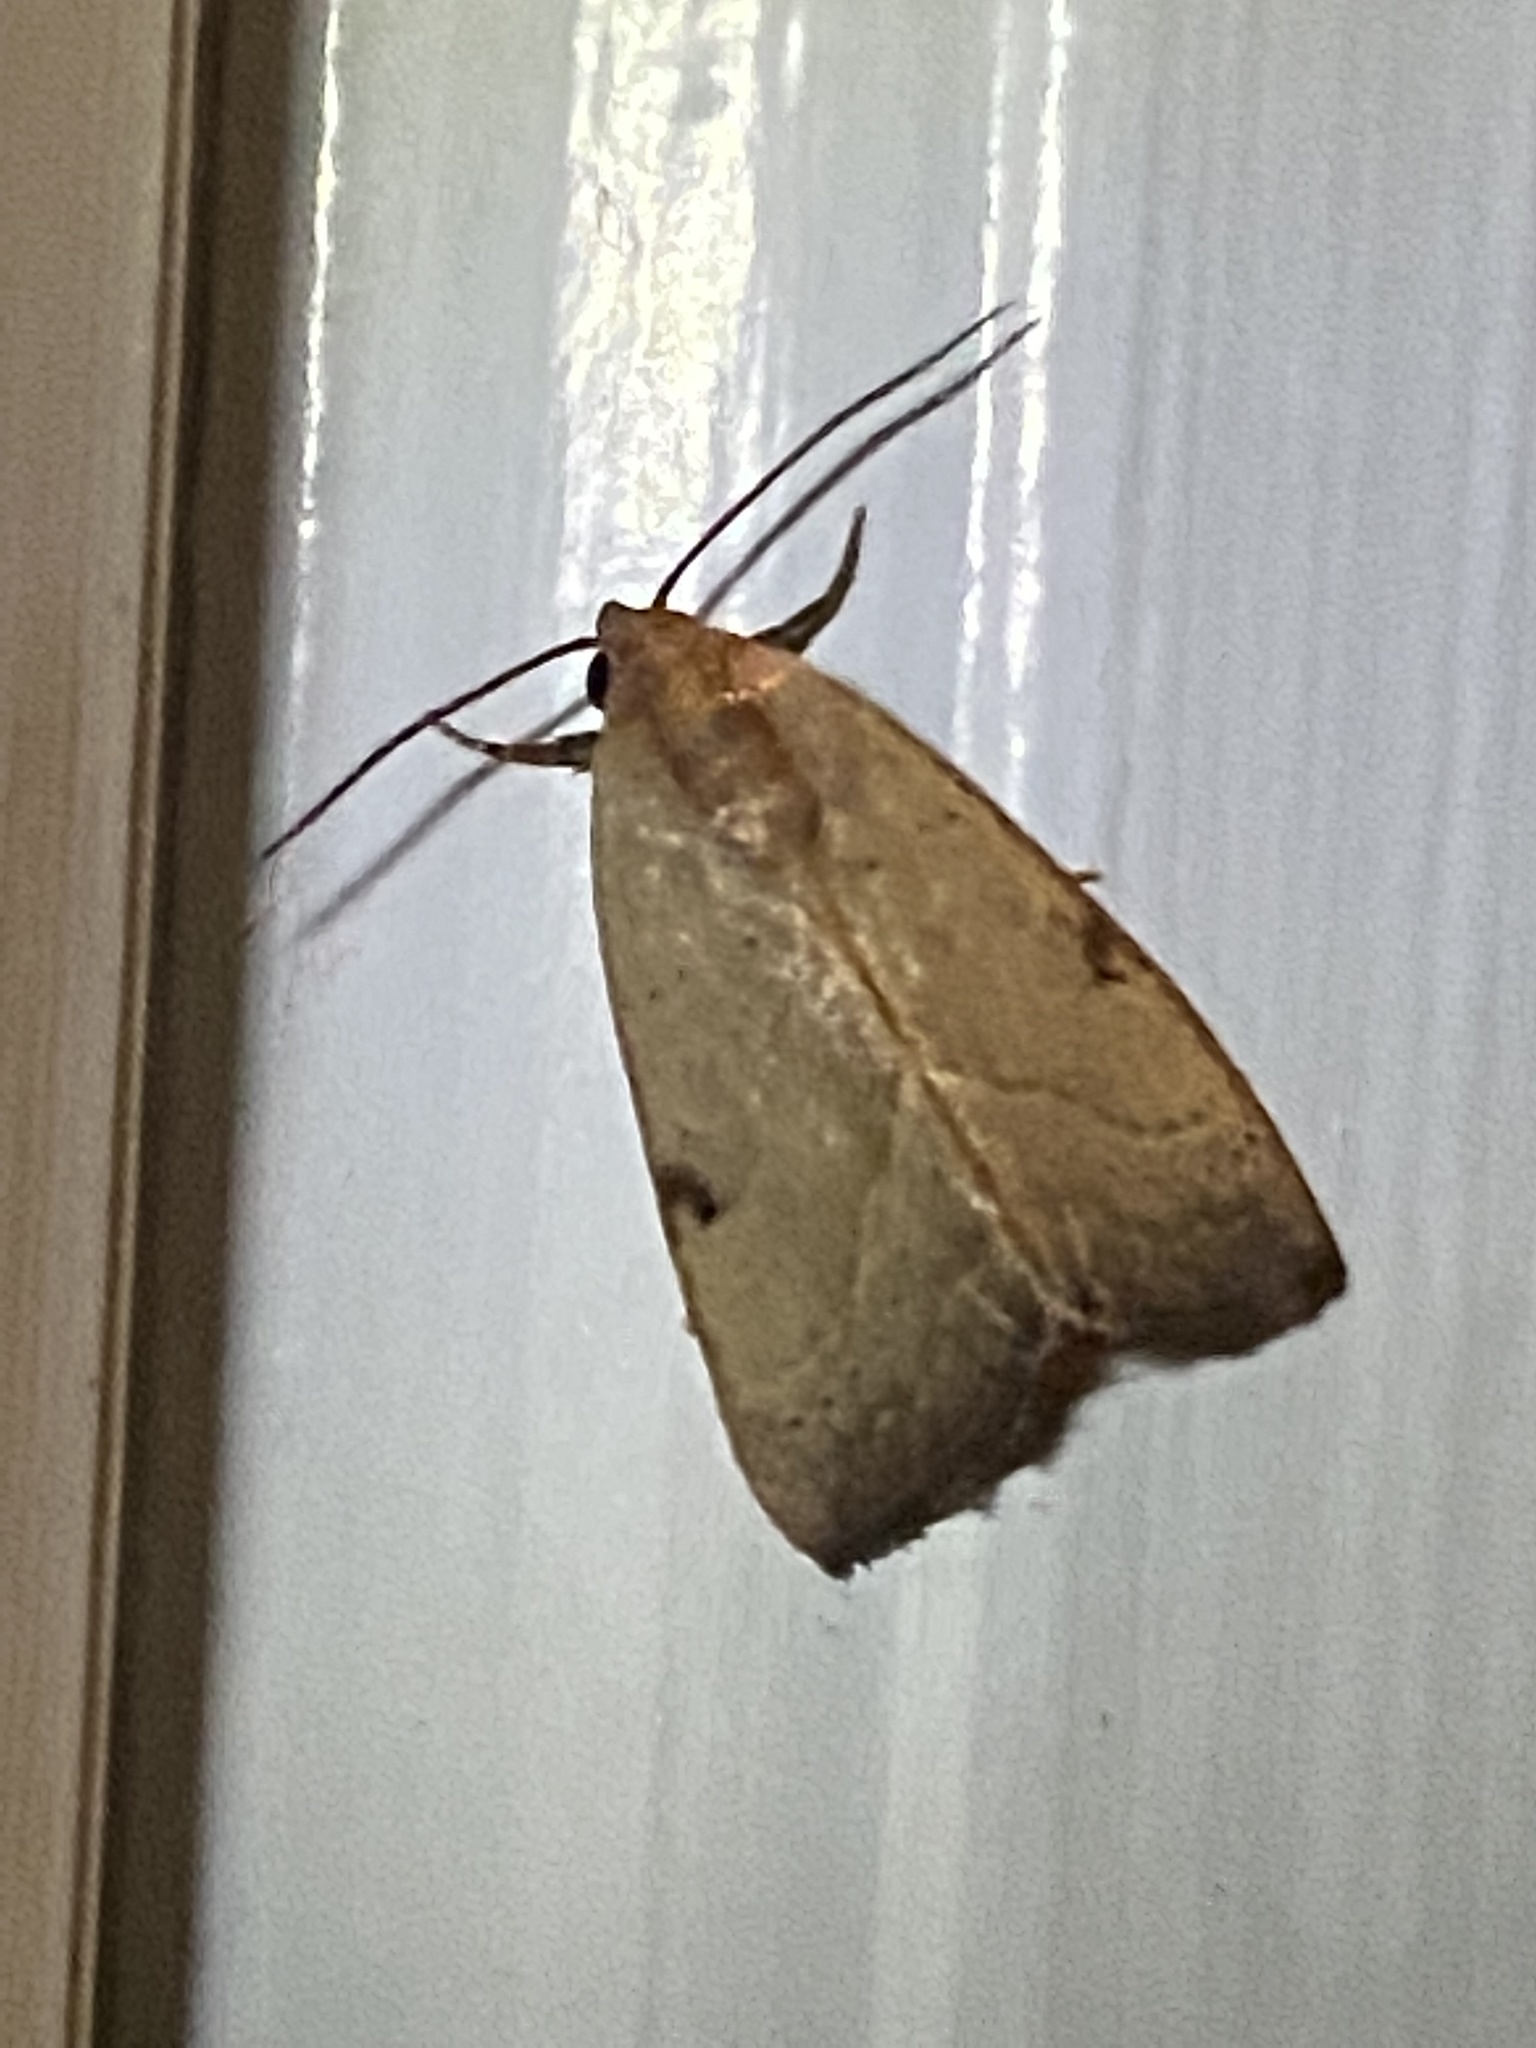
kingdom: Animalia
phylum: Arthropoda
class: Insecta
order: Lepidoptera
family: Noctuidae
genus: Galgula
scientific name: Galgula partita
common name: Wedgeling
